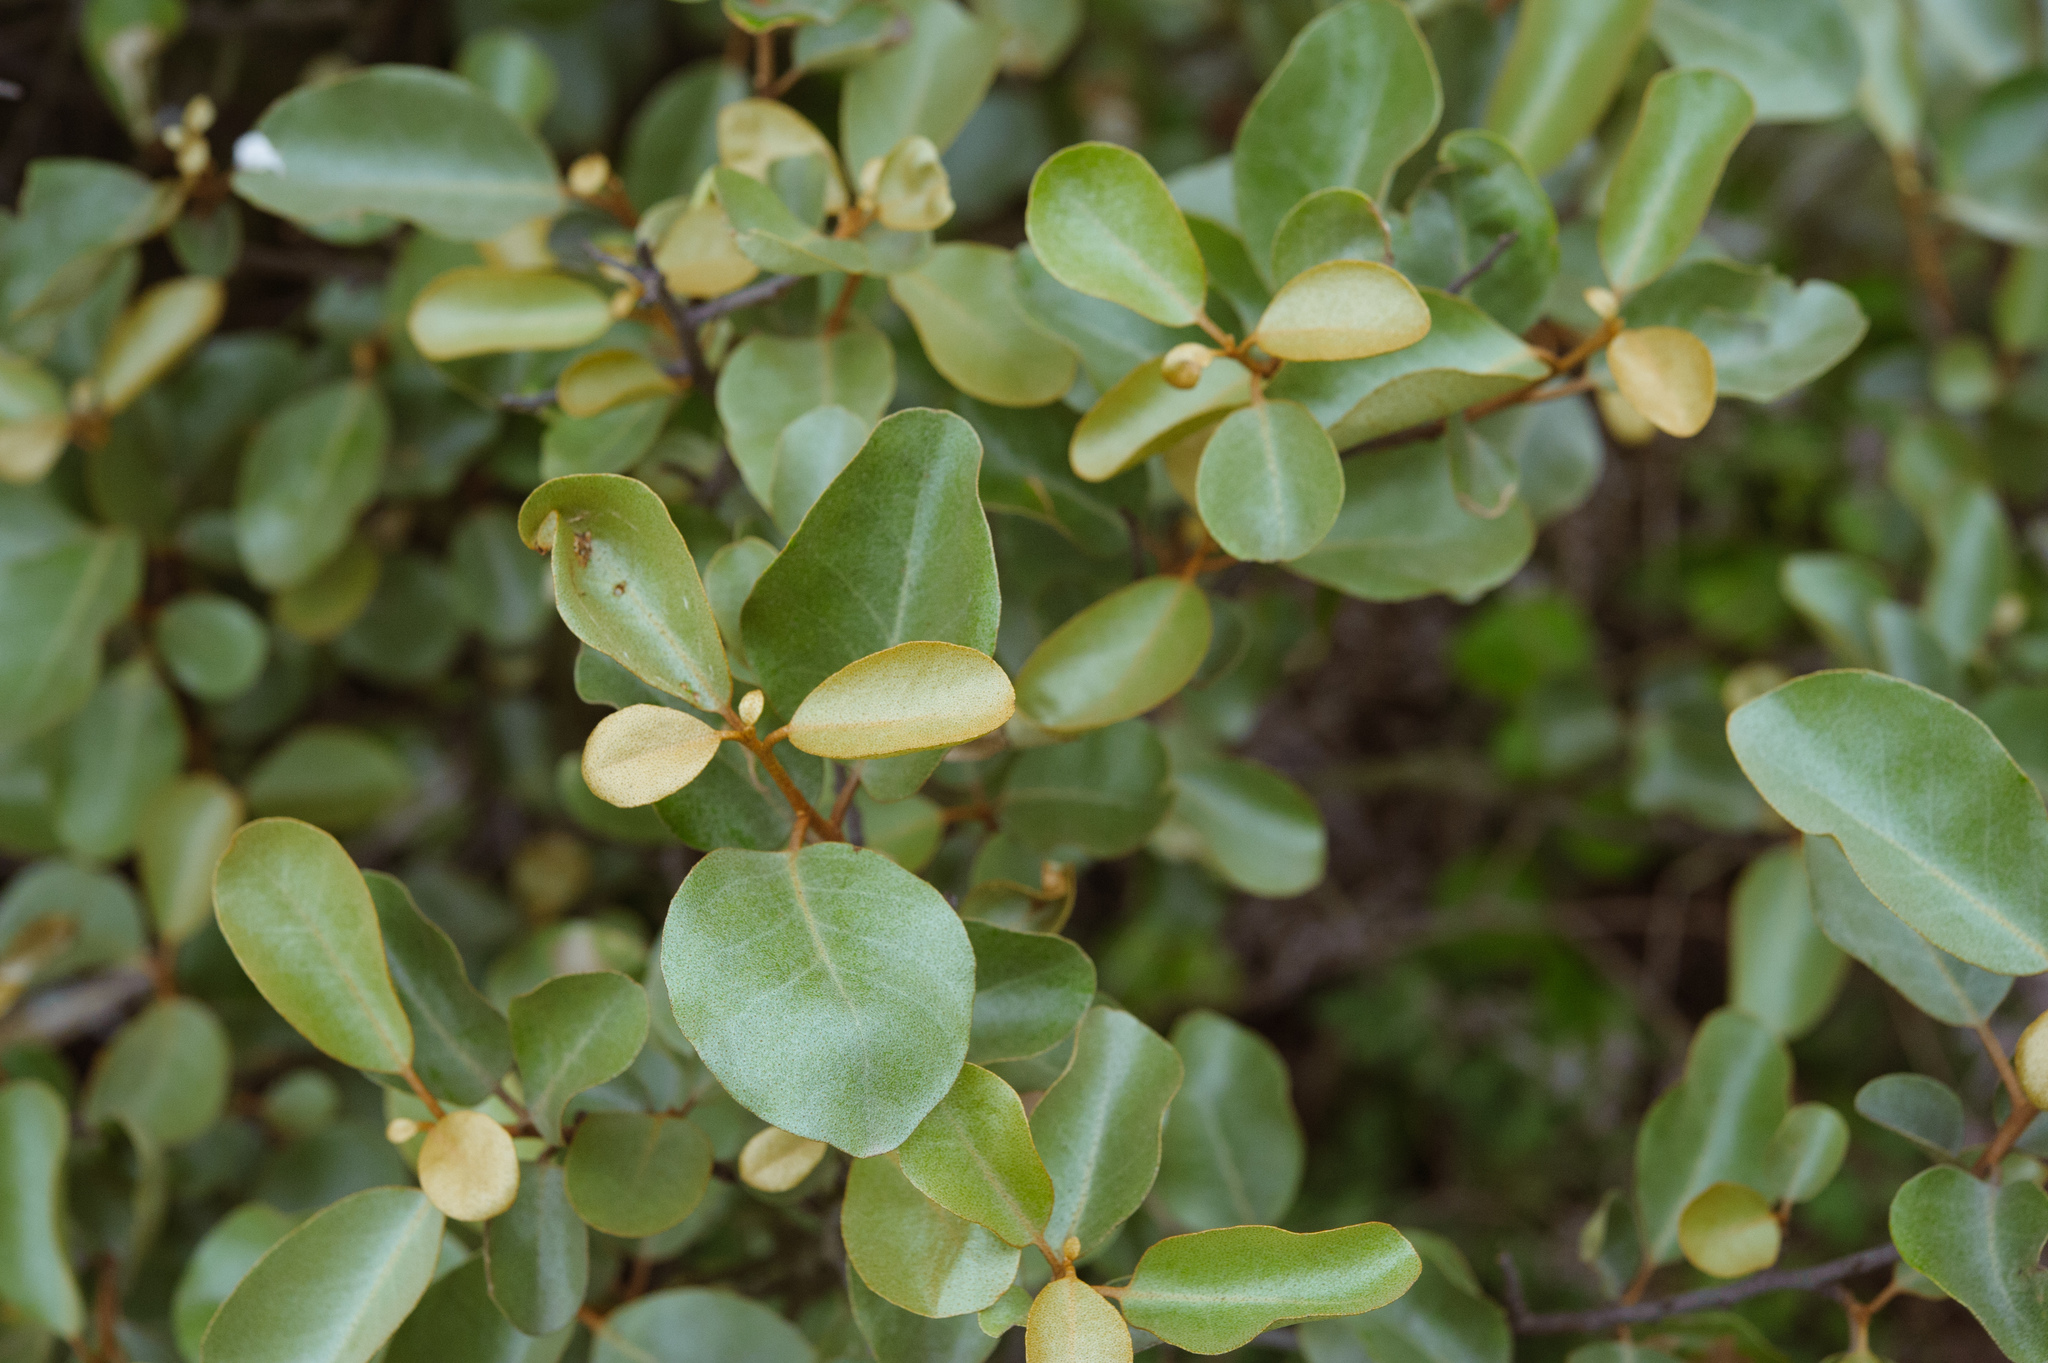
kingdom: Plantae
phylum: Tracheophyta
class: Magnoliopsida
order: Rosales
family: Elaeagnaceae
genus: Elaeagnus
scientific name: Elaeagnus oldhamii
